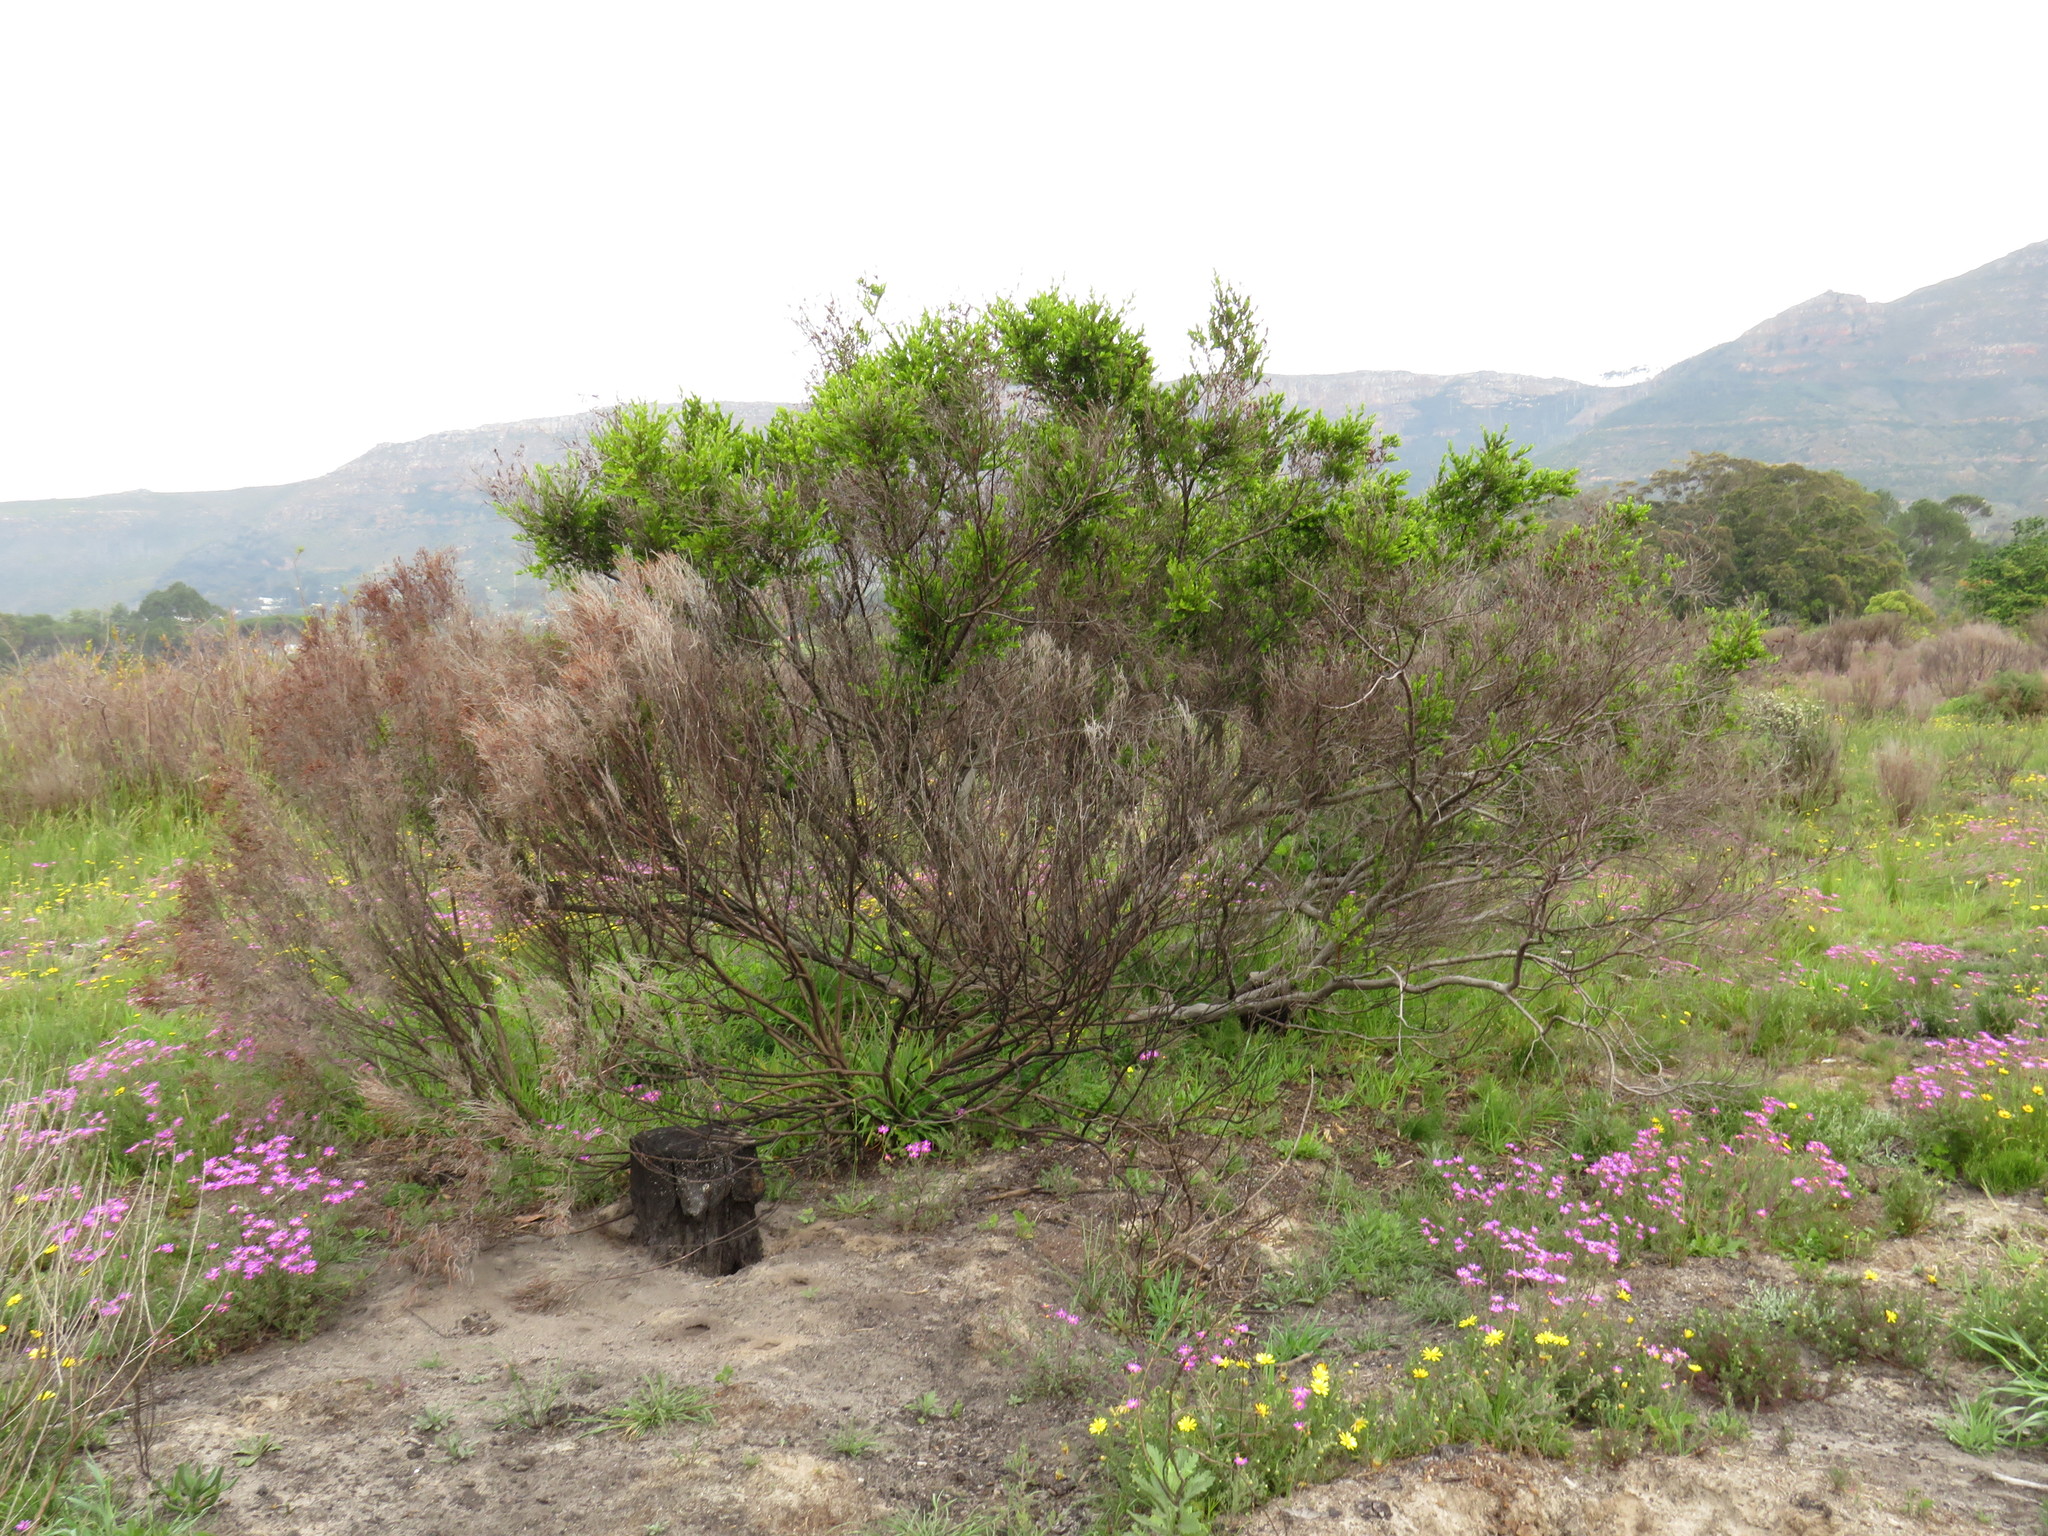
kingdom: Plantae
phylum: Tracheophyta
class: Magnoliopsida
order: Ericales
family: Ebenaceae
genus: Diospyros
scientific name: Diospyros glabra
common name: Fynbos star apple
